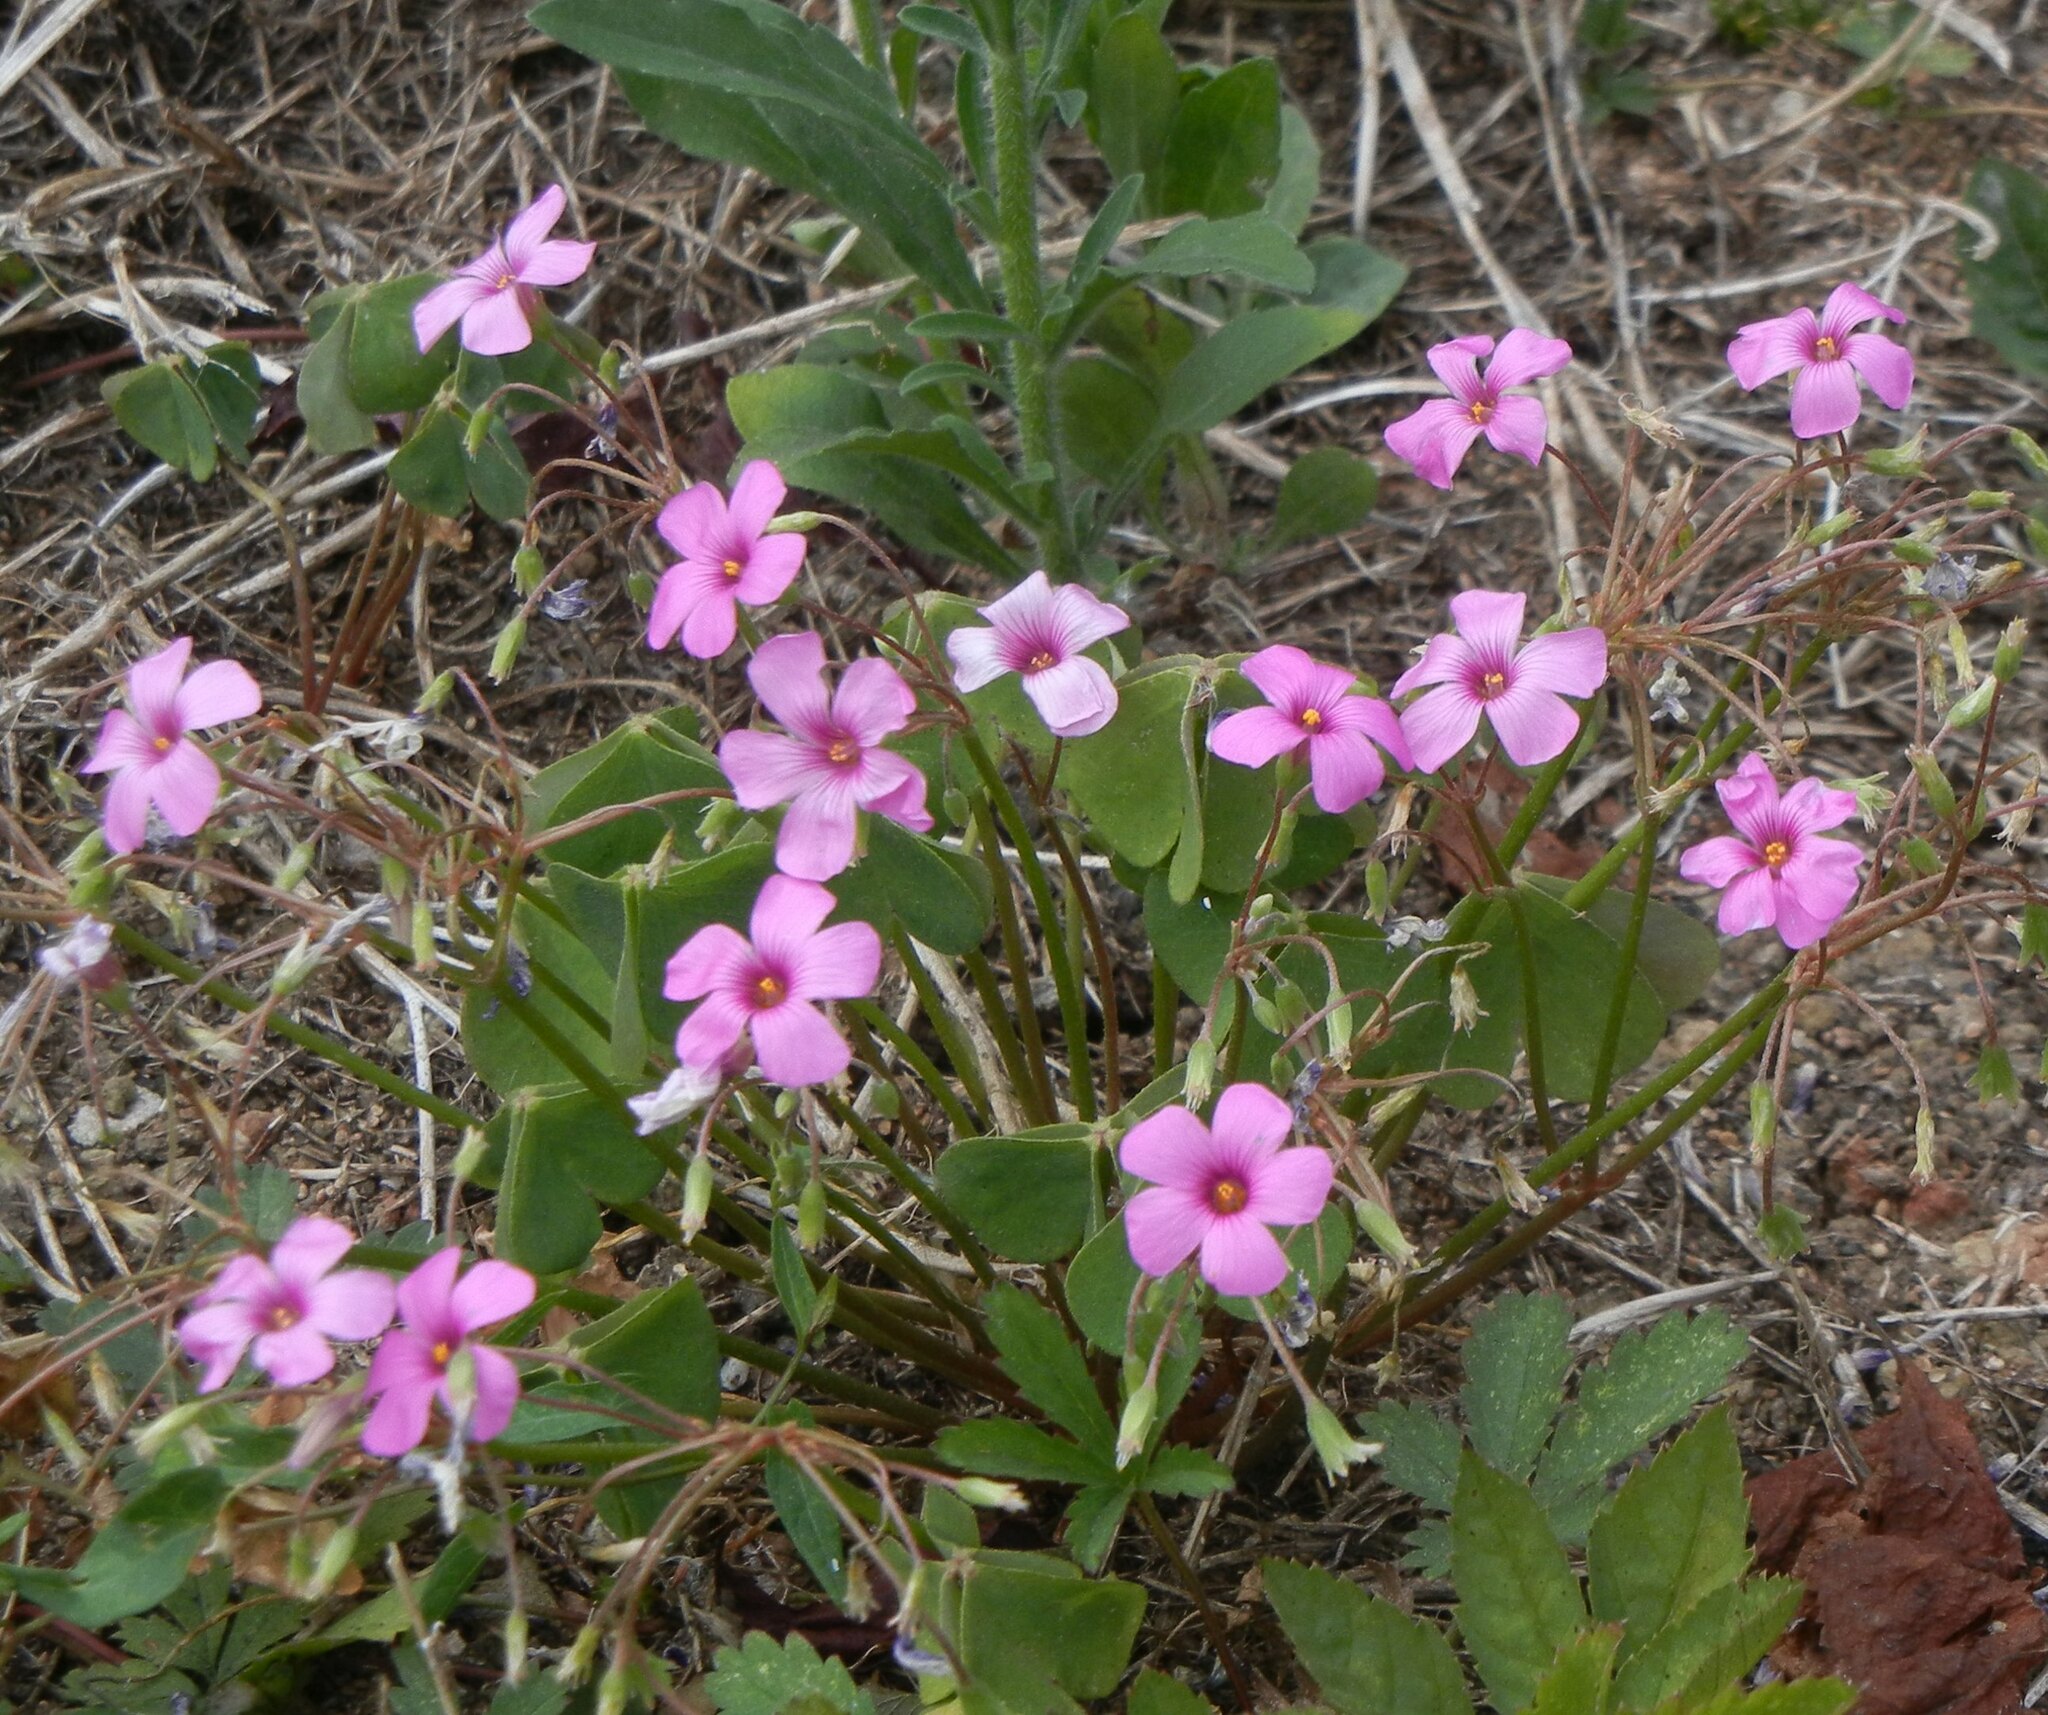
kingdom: Plantae
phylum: Tracheophyta
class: Magnoliopsida
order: Oxalidales
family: Oxalidaceae
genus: Oxalis
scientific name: Oxalis articulata
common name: Pink-sorrel
